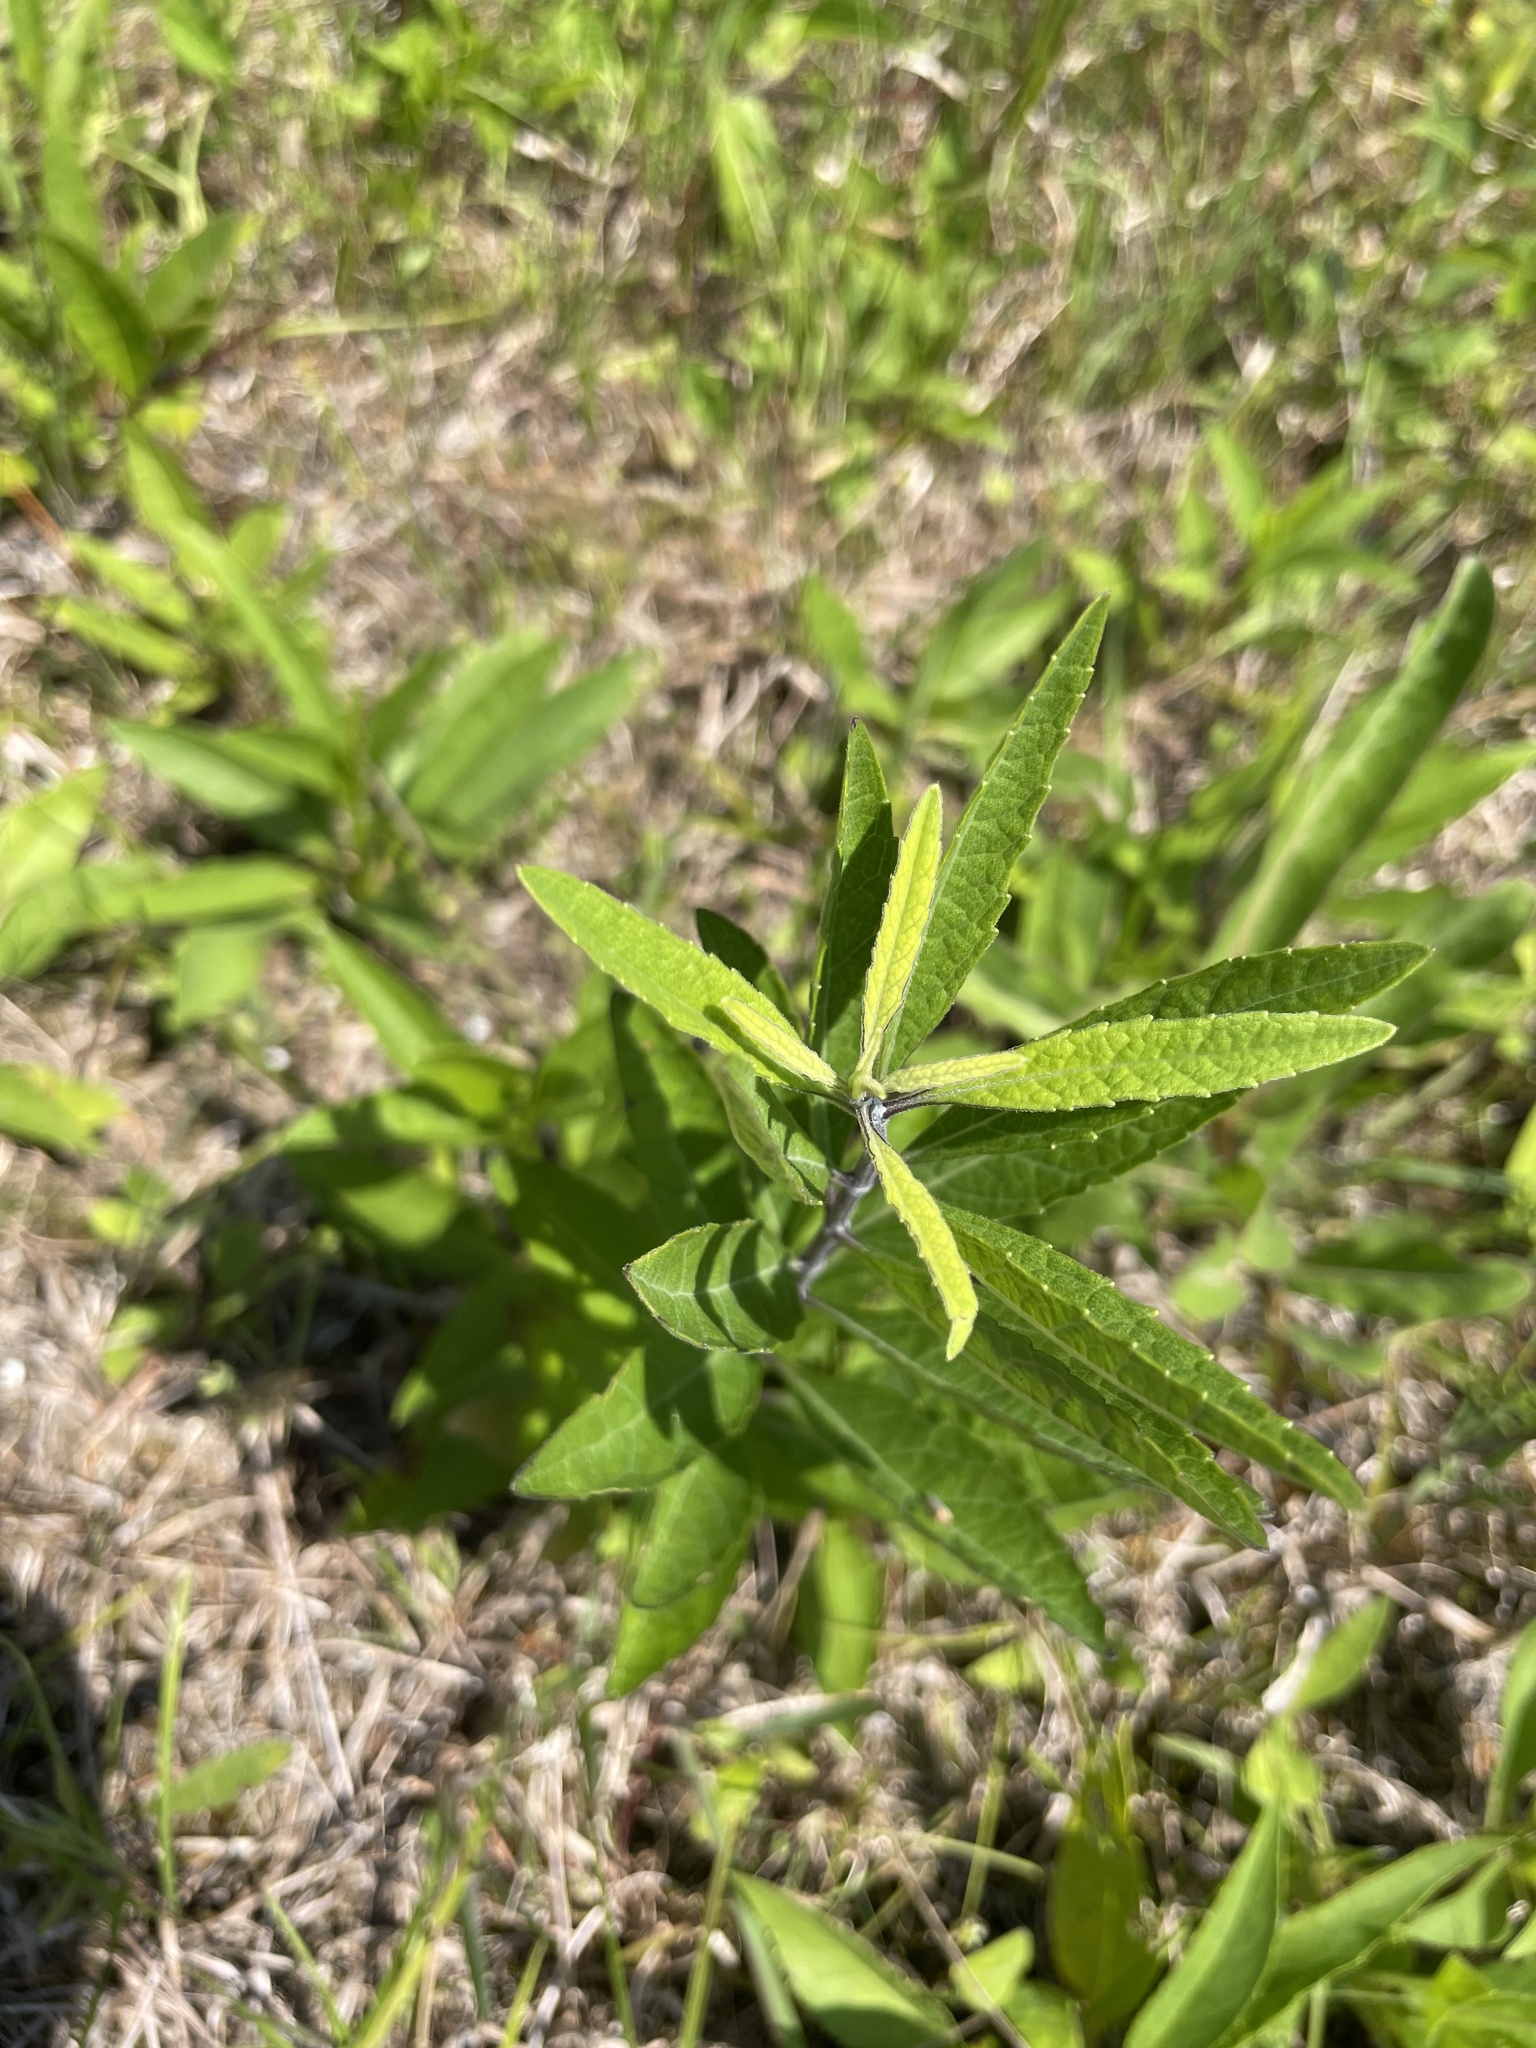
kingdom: Plantae
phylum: Tracheophyta
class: Magnoliopsida
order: Lamiales
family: Lamiaceae
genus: Salvia
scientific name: Salvia azurea
